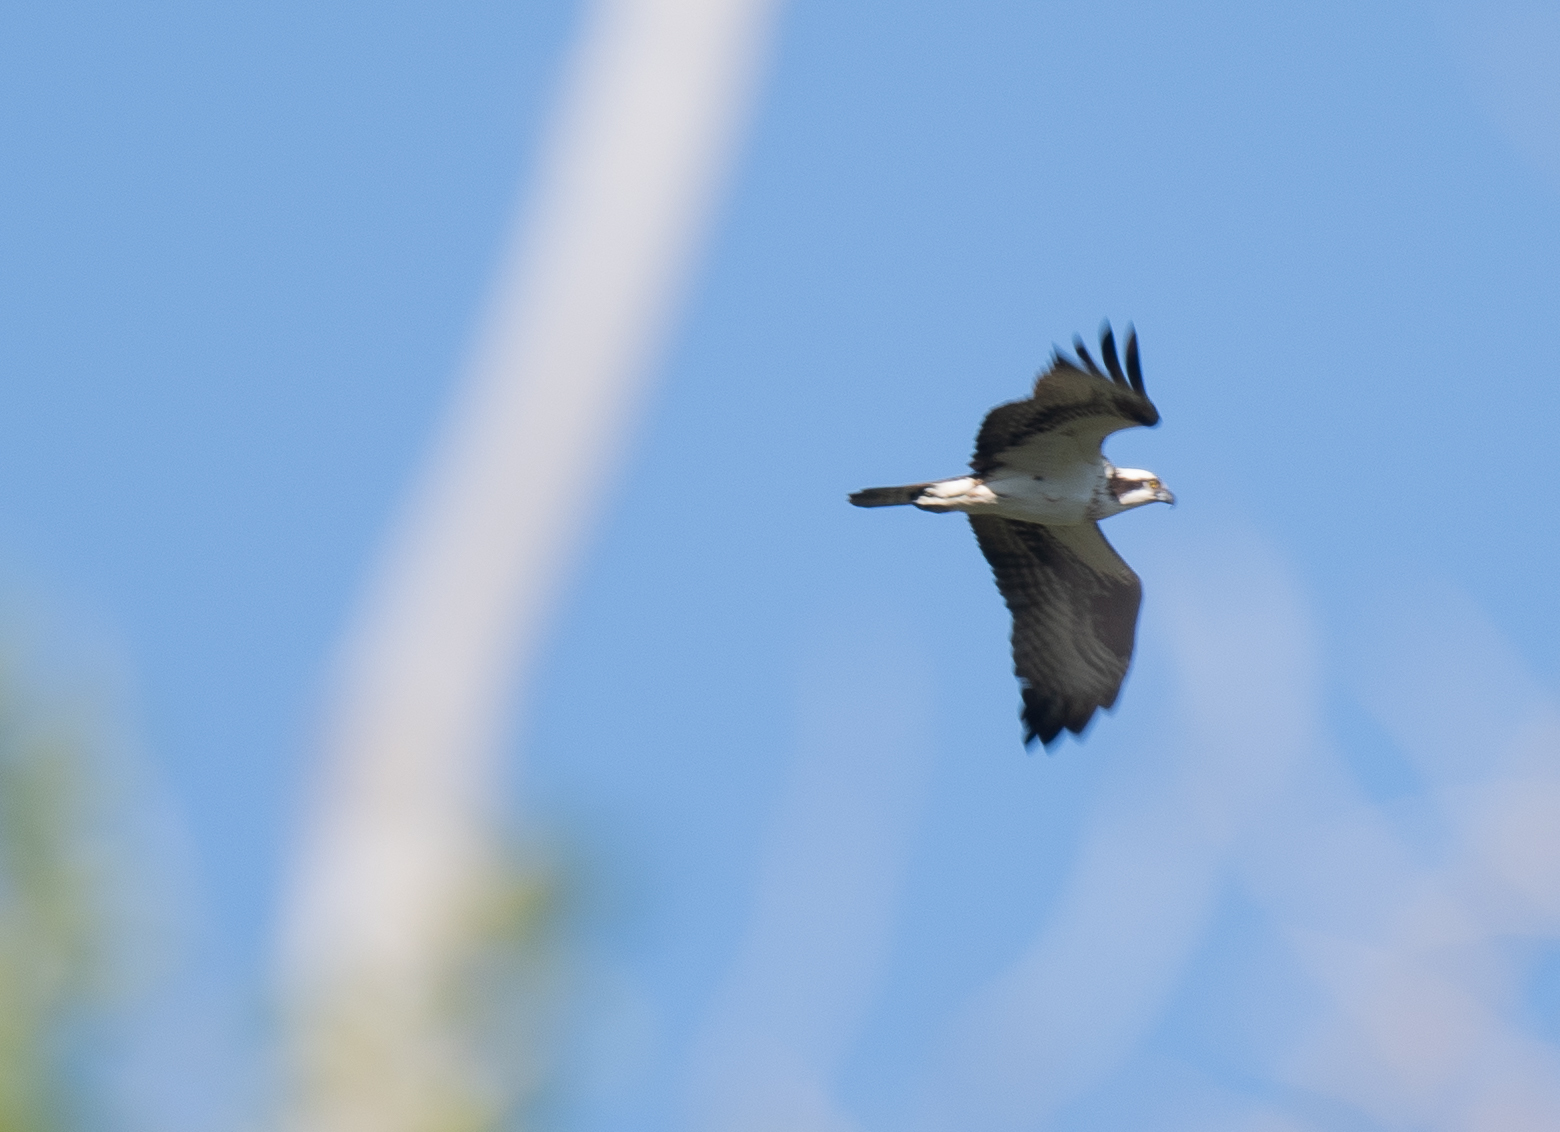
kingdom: Animalia
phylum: Chordata
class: Aves
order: Accipitriformes
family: Pandionidae
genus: Pandion
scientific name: Pandion haliaetus
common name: Osprey
